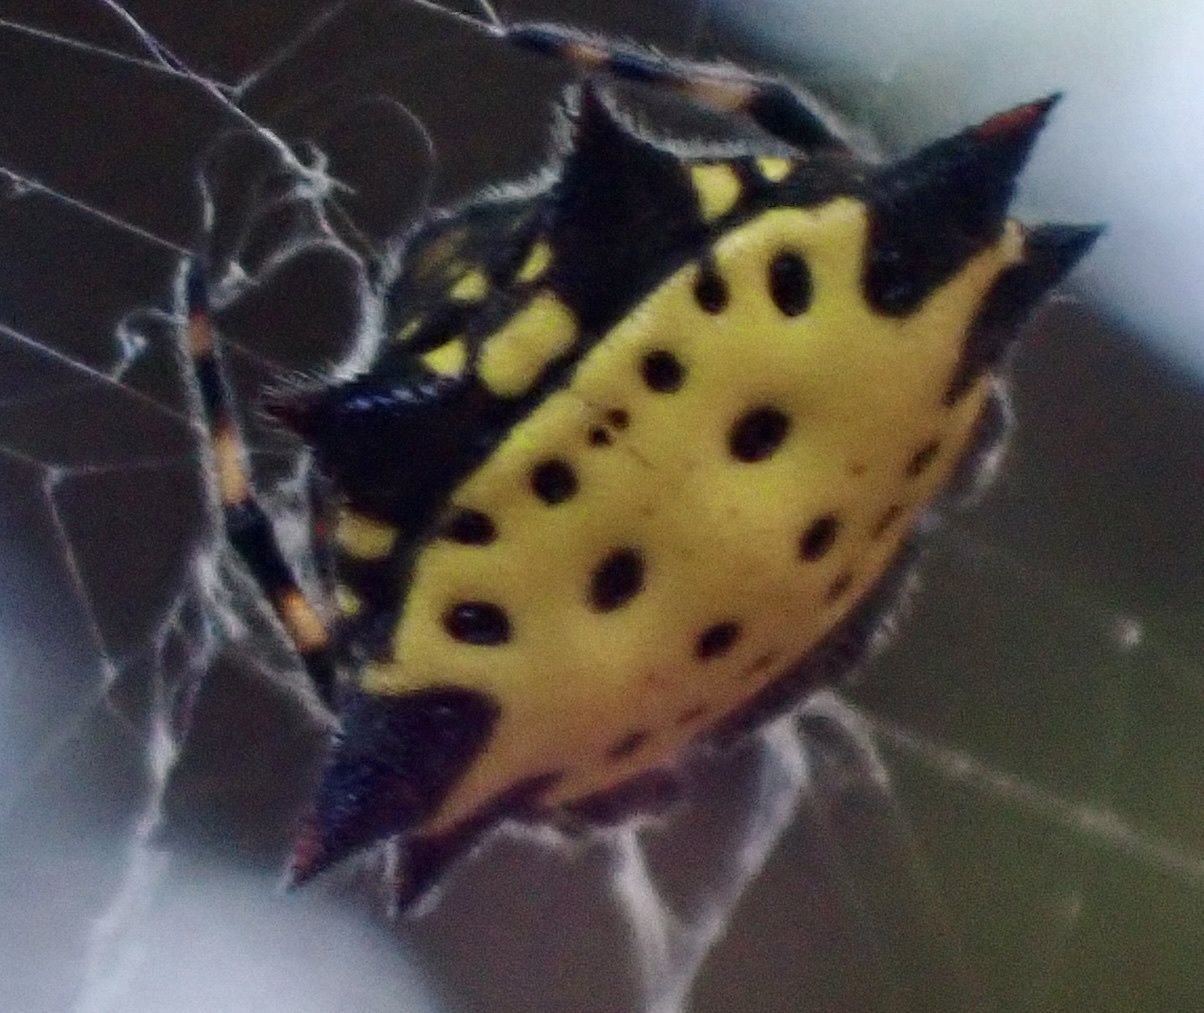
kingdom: Animalia
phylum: Arthropoda
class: Arachnida
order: Araneae
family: Araneidae
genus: Gasteracantha
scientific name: Gasteracantha cancriformis
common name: Orb weavers
